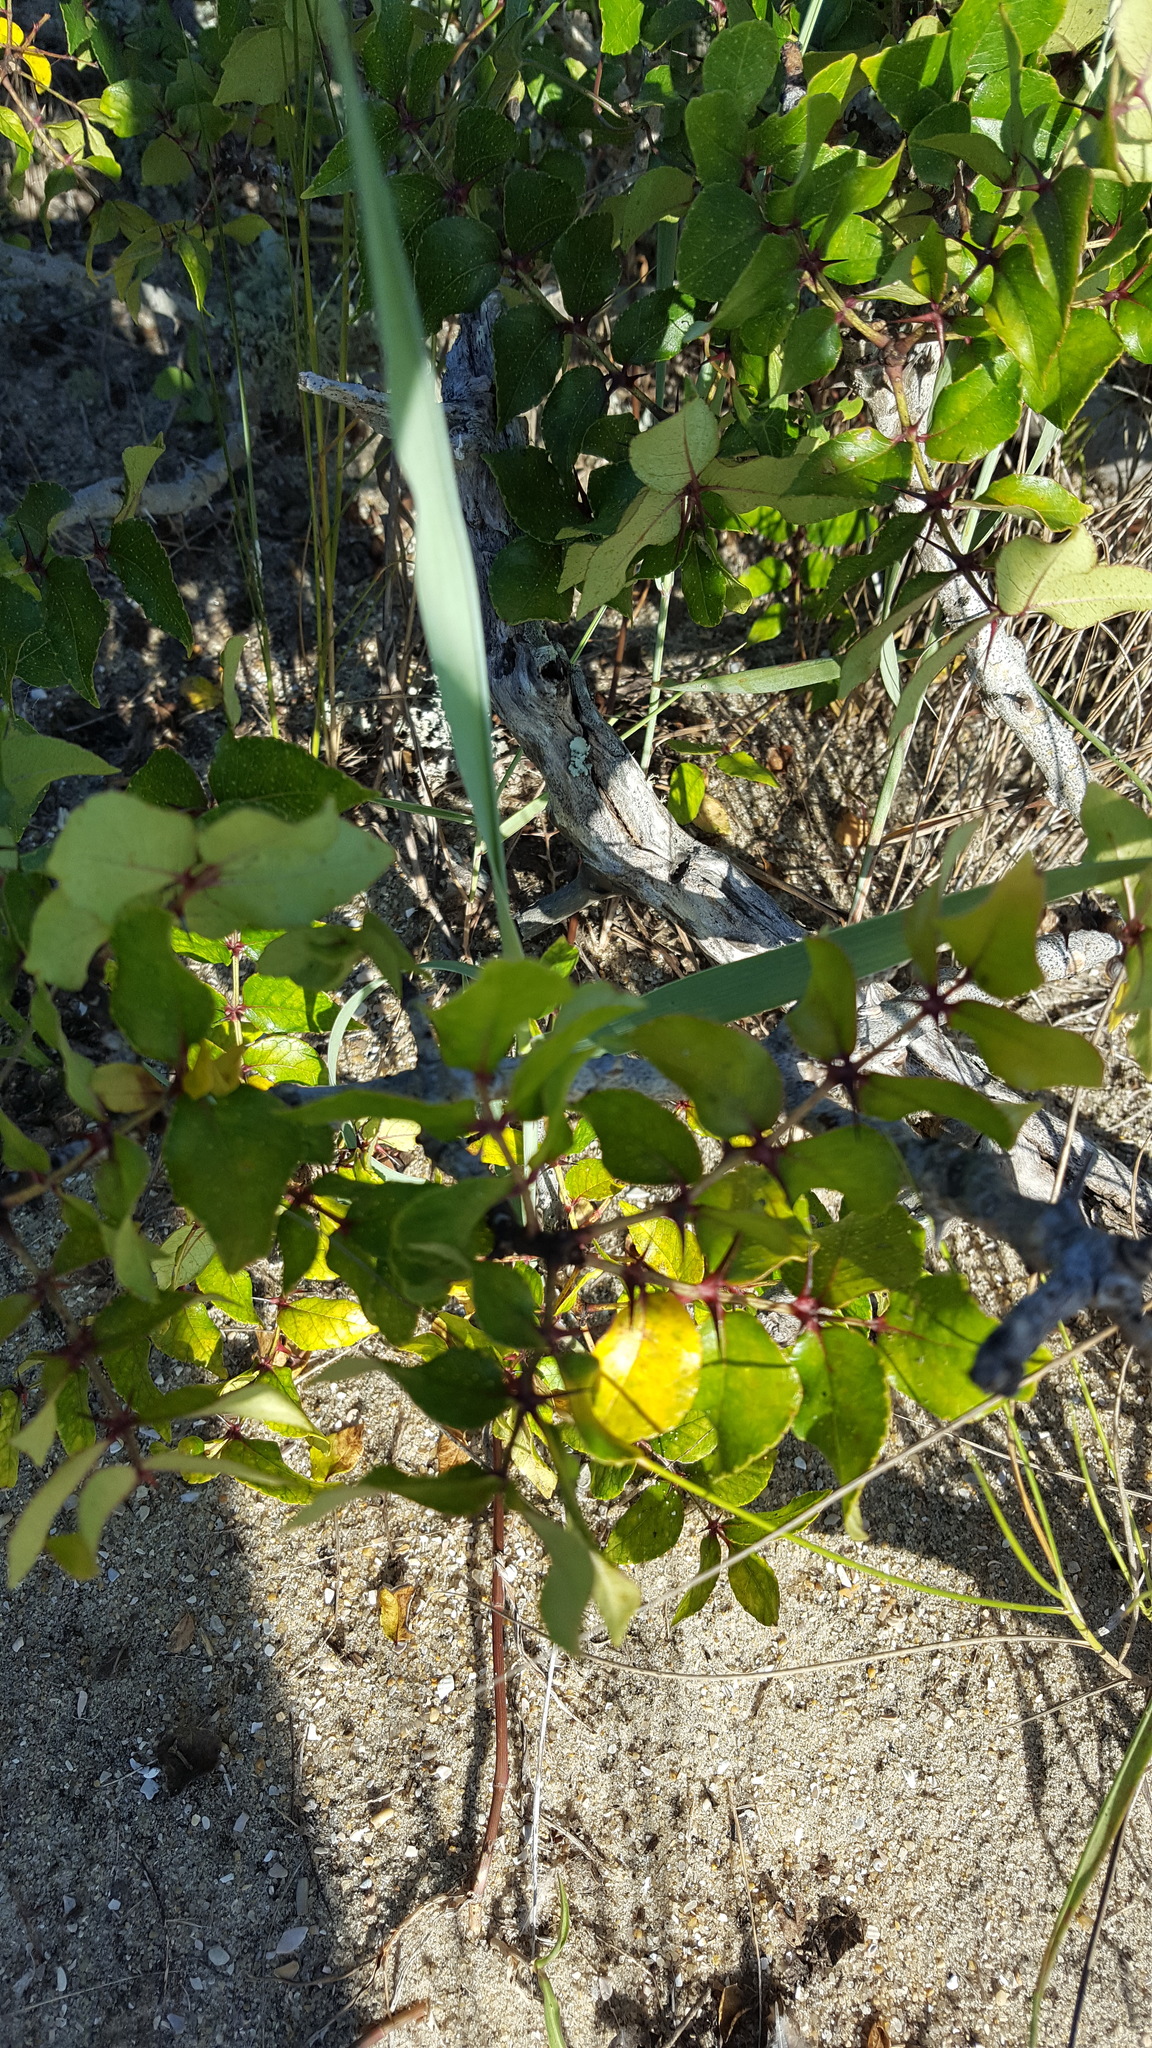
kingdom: Plantae
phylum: Tracheophyta
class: Magnoliopsida
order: Sapindales
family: Rutaceae
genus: Zanthoxylum
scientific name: Zanthoxylum clava-herculis
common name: Hercules'-club
